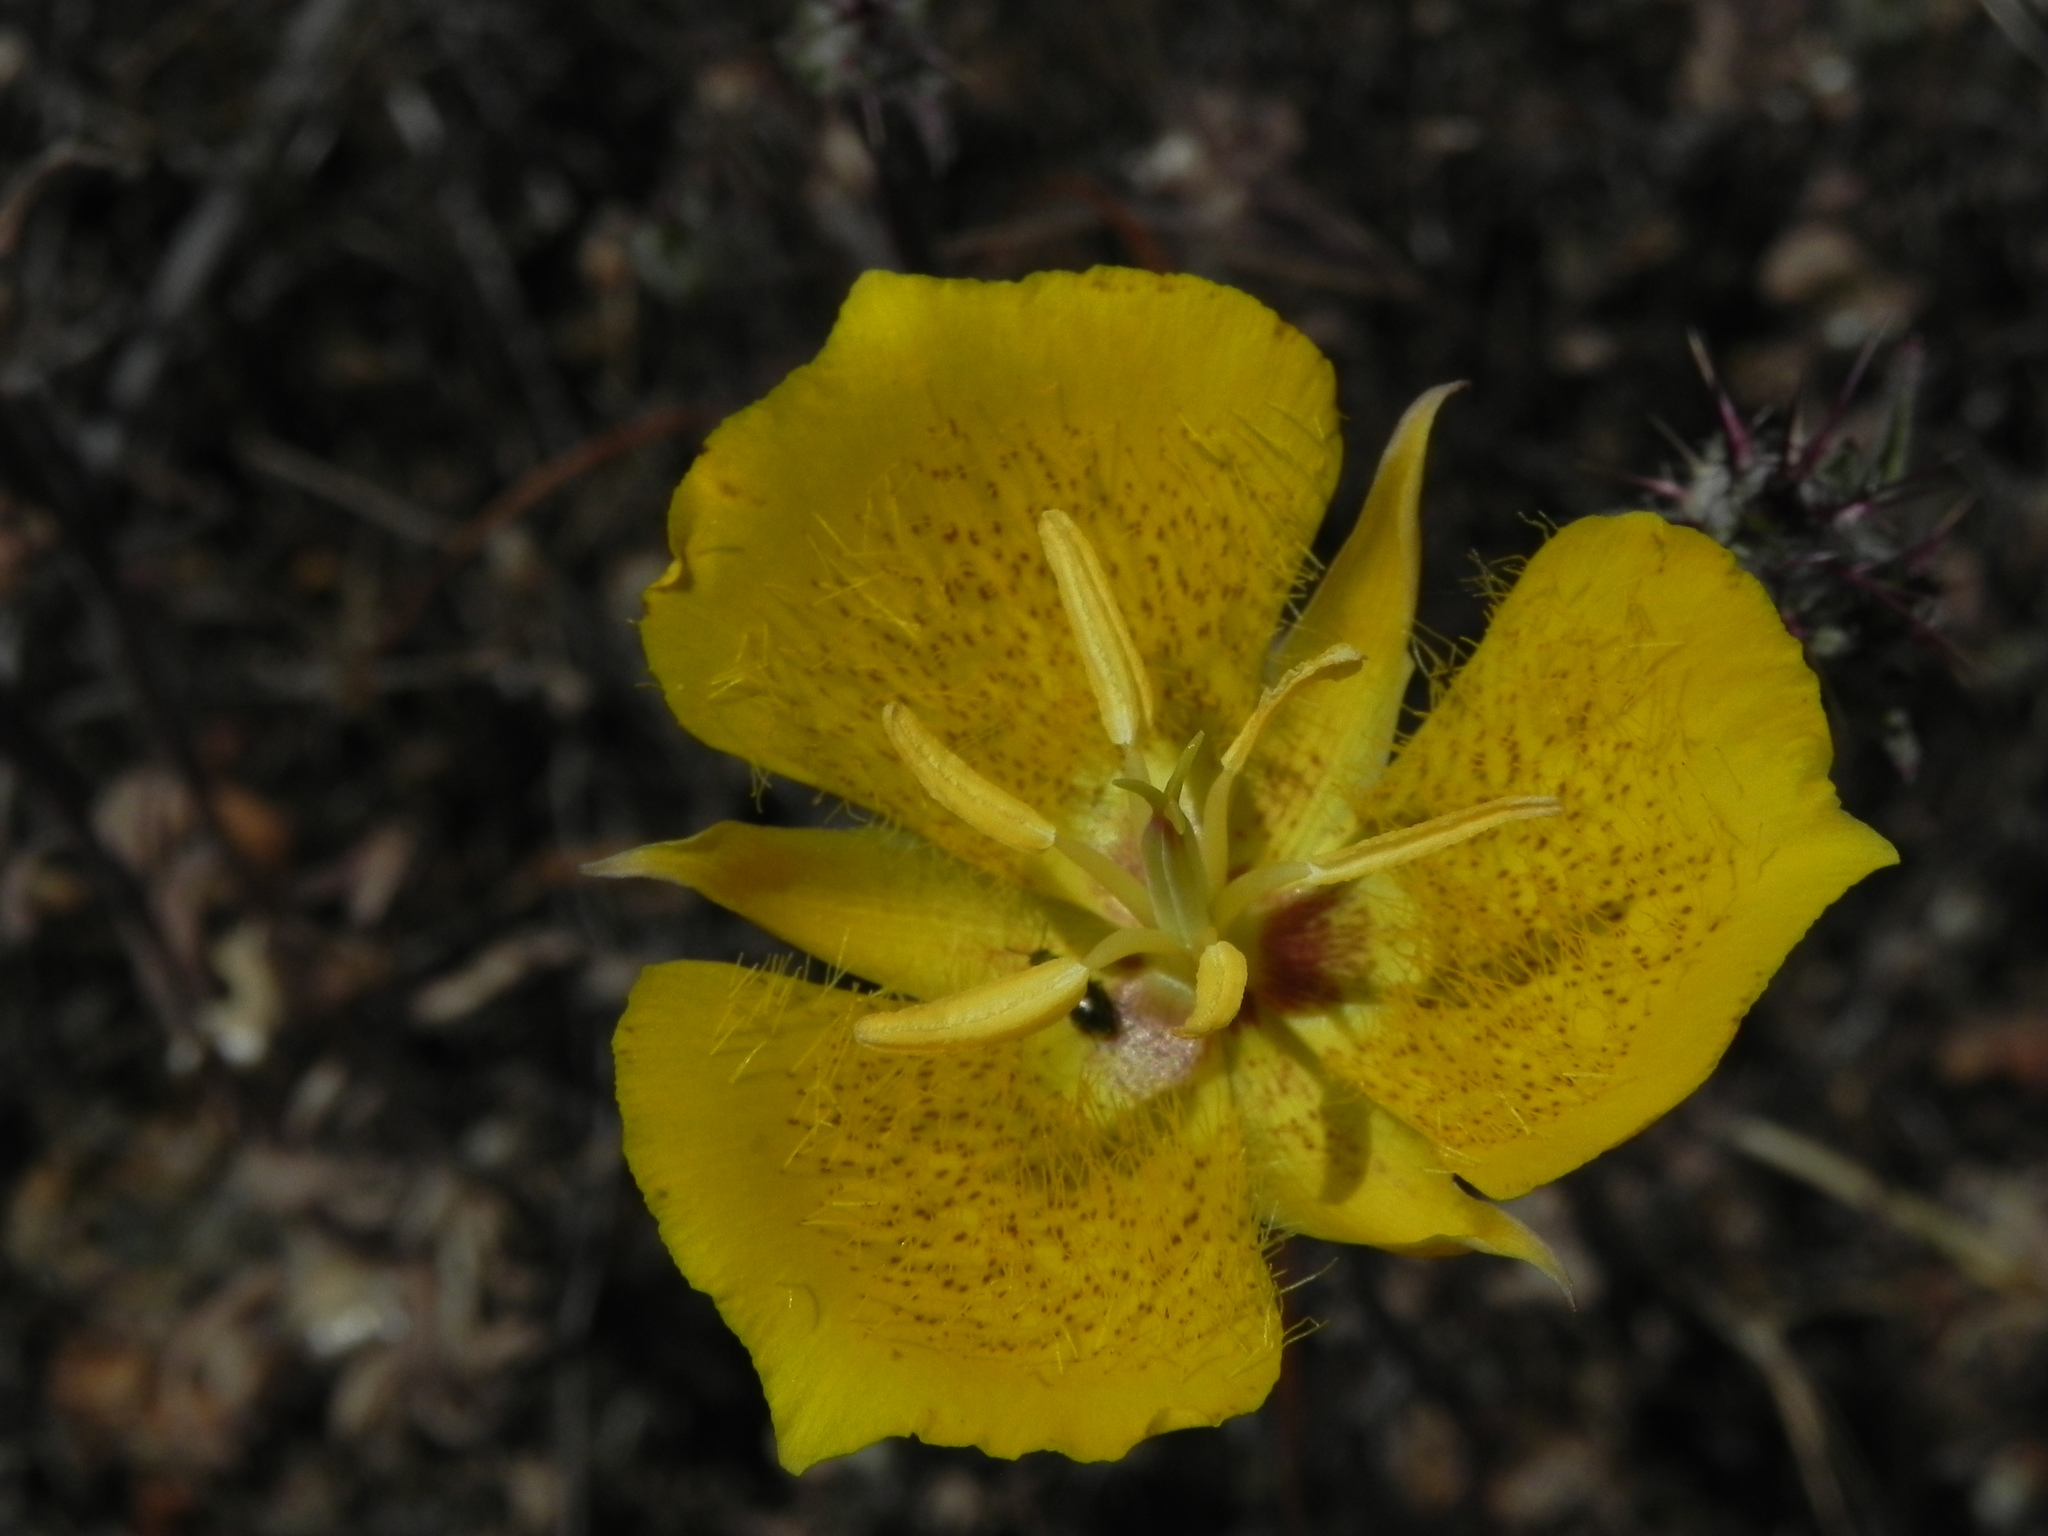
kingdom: Plantae
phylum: Tracheophyta
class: Liliopsida
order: Liliales
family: Liliaceae
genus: Calochortus
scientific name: Calochortus weedii
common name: Weed's mariposa-lily
